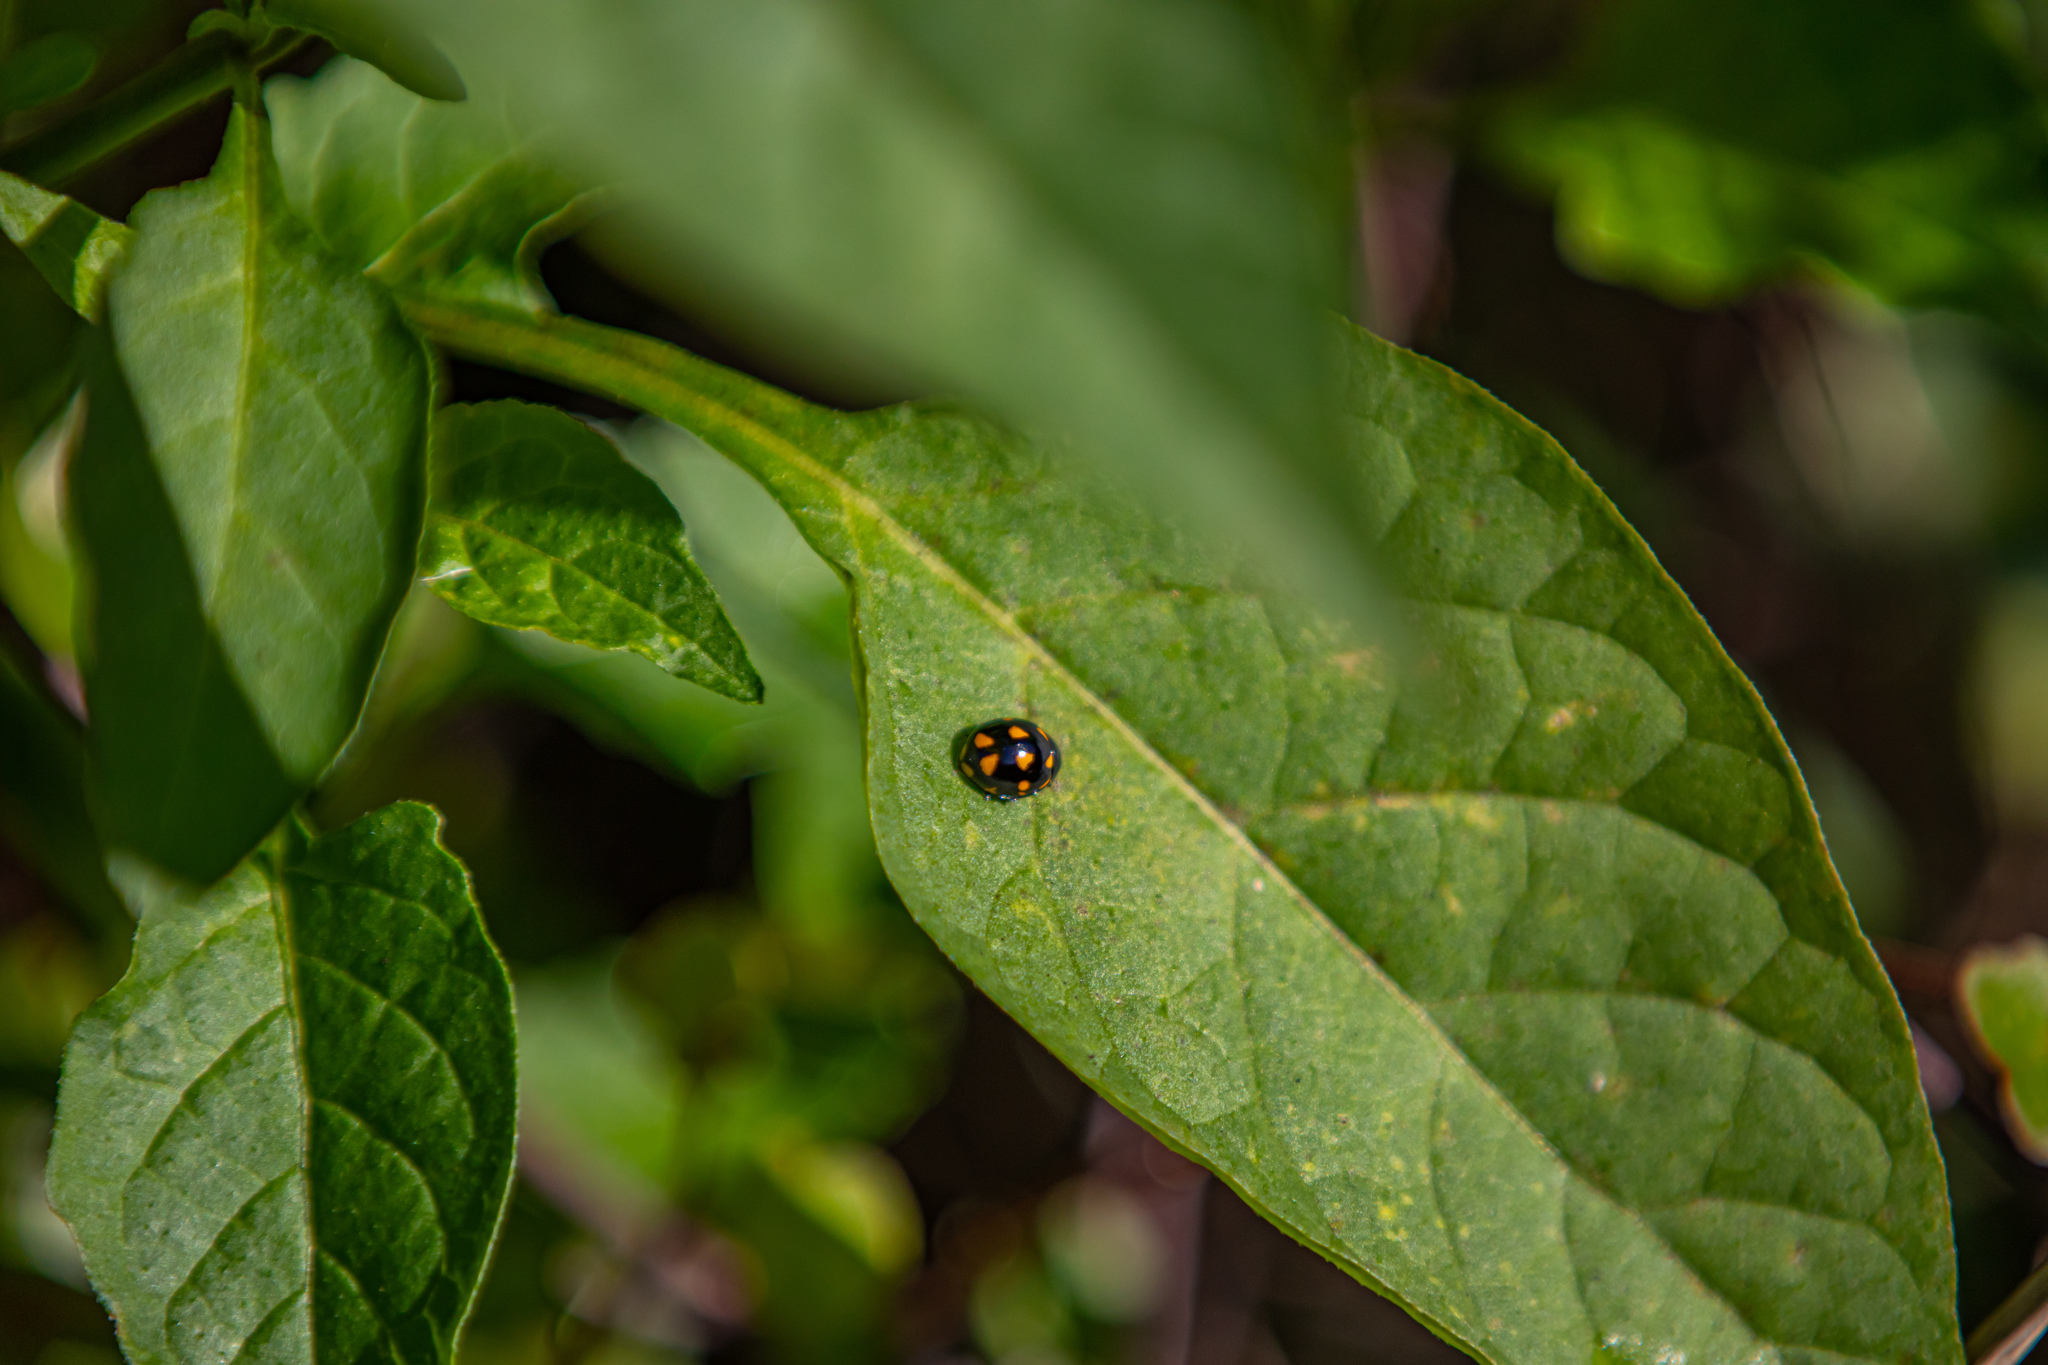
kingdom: Animalia
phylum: Arthropoda
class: Insecta
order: Coleoptera
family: Coccinellidae
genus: Coccinella
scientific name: Coccinella leonina
